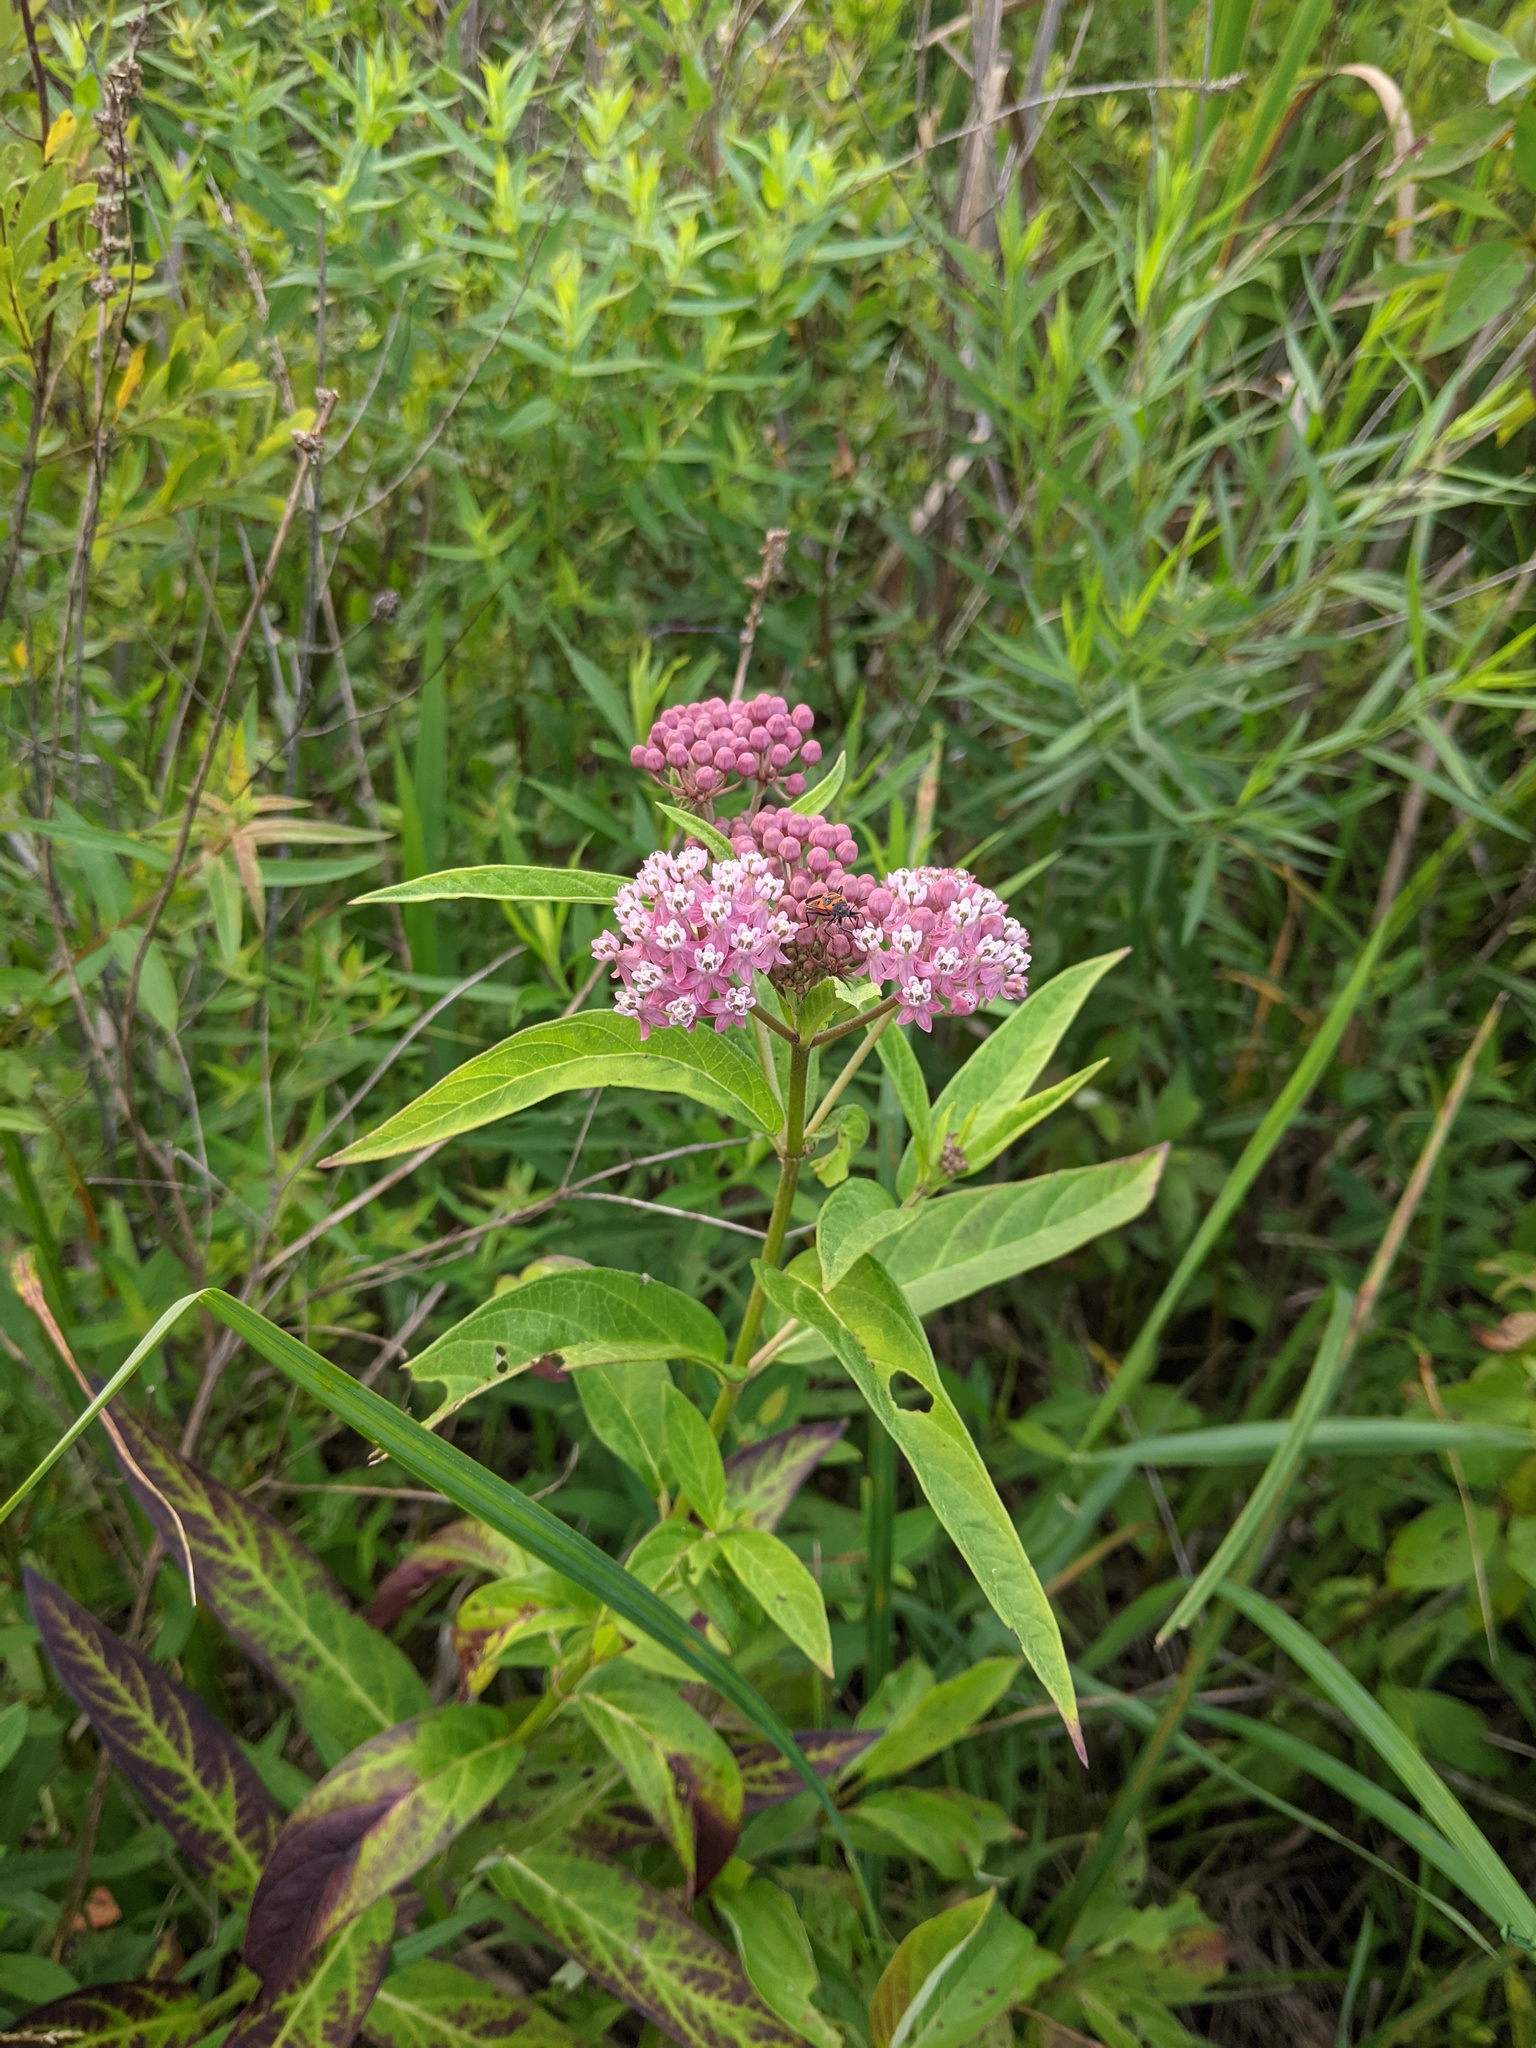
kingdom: Plantae
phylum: Tracheophyta
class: Magnoliopsida
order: Gentianales
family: Apocynaceae
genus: Asclepias
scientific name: Asclepias incarnata
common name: Swamp milkweed
